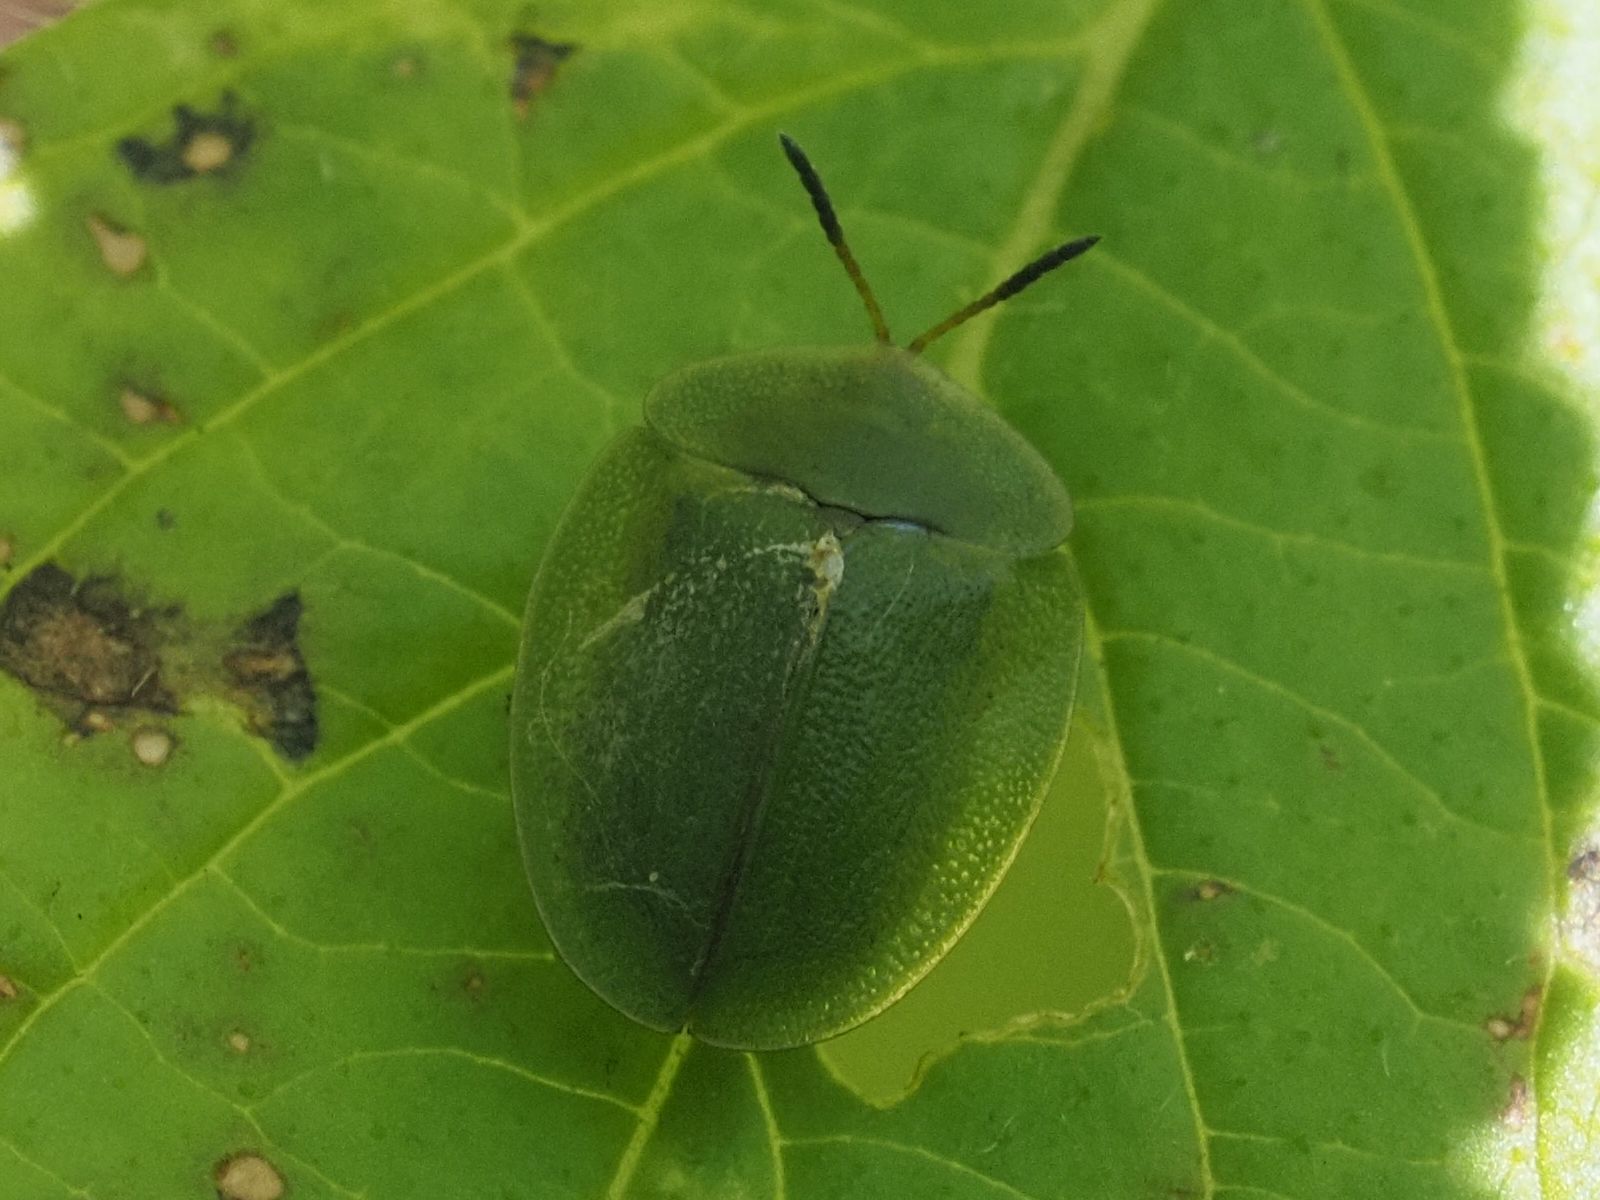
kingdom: Animalia
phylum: Arthropoda
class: Insecta
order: Coleoptera
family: Chrysomelidae
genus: Cassida
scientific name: Cassida viridis
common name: Green tortoise beetle
